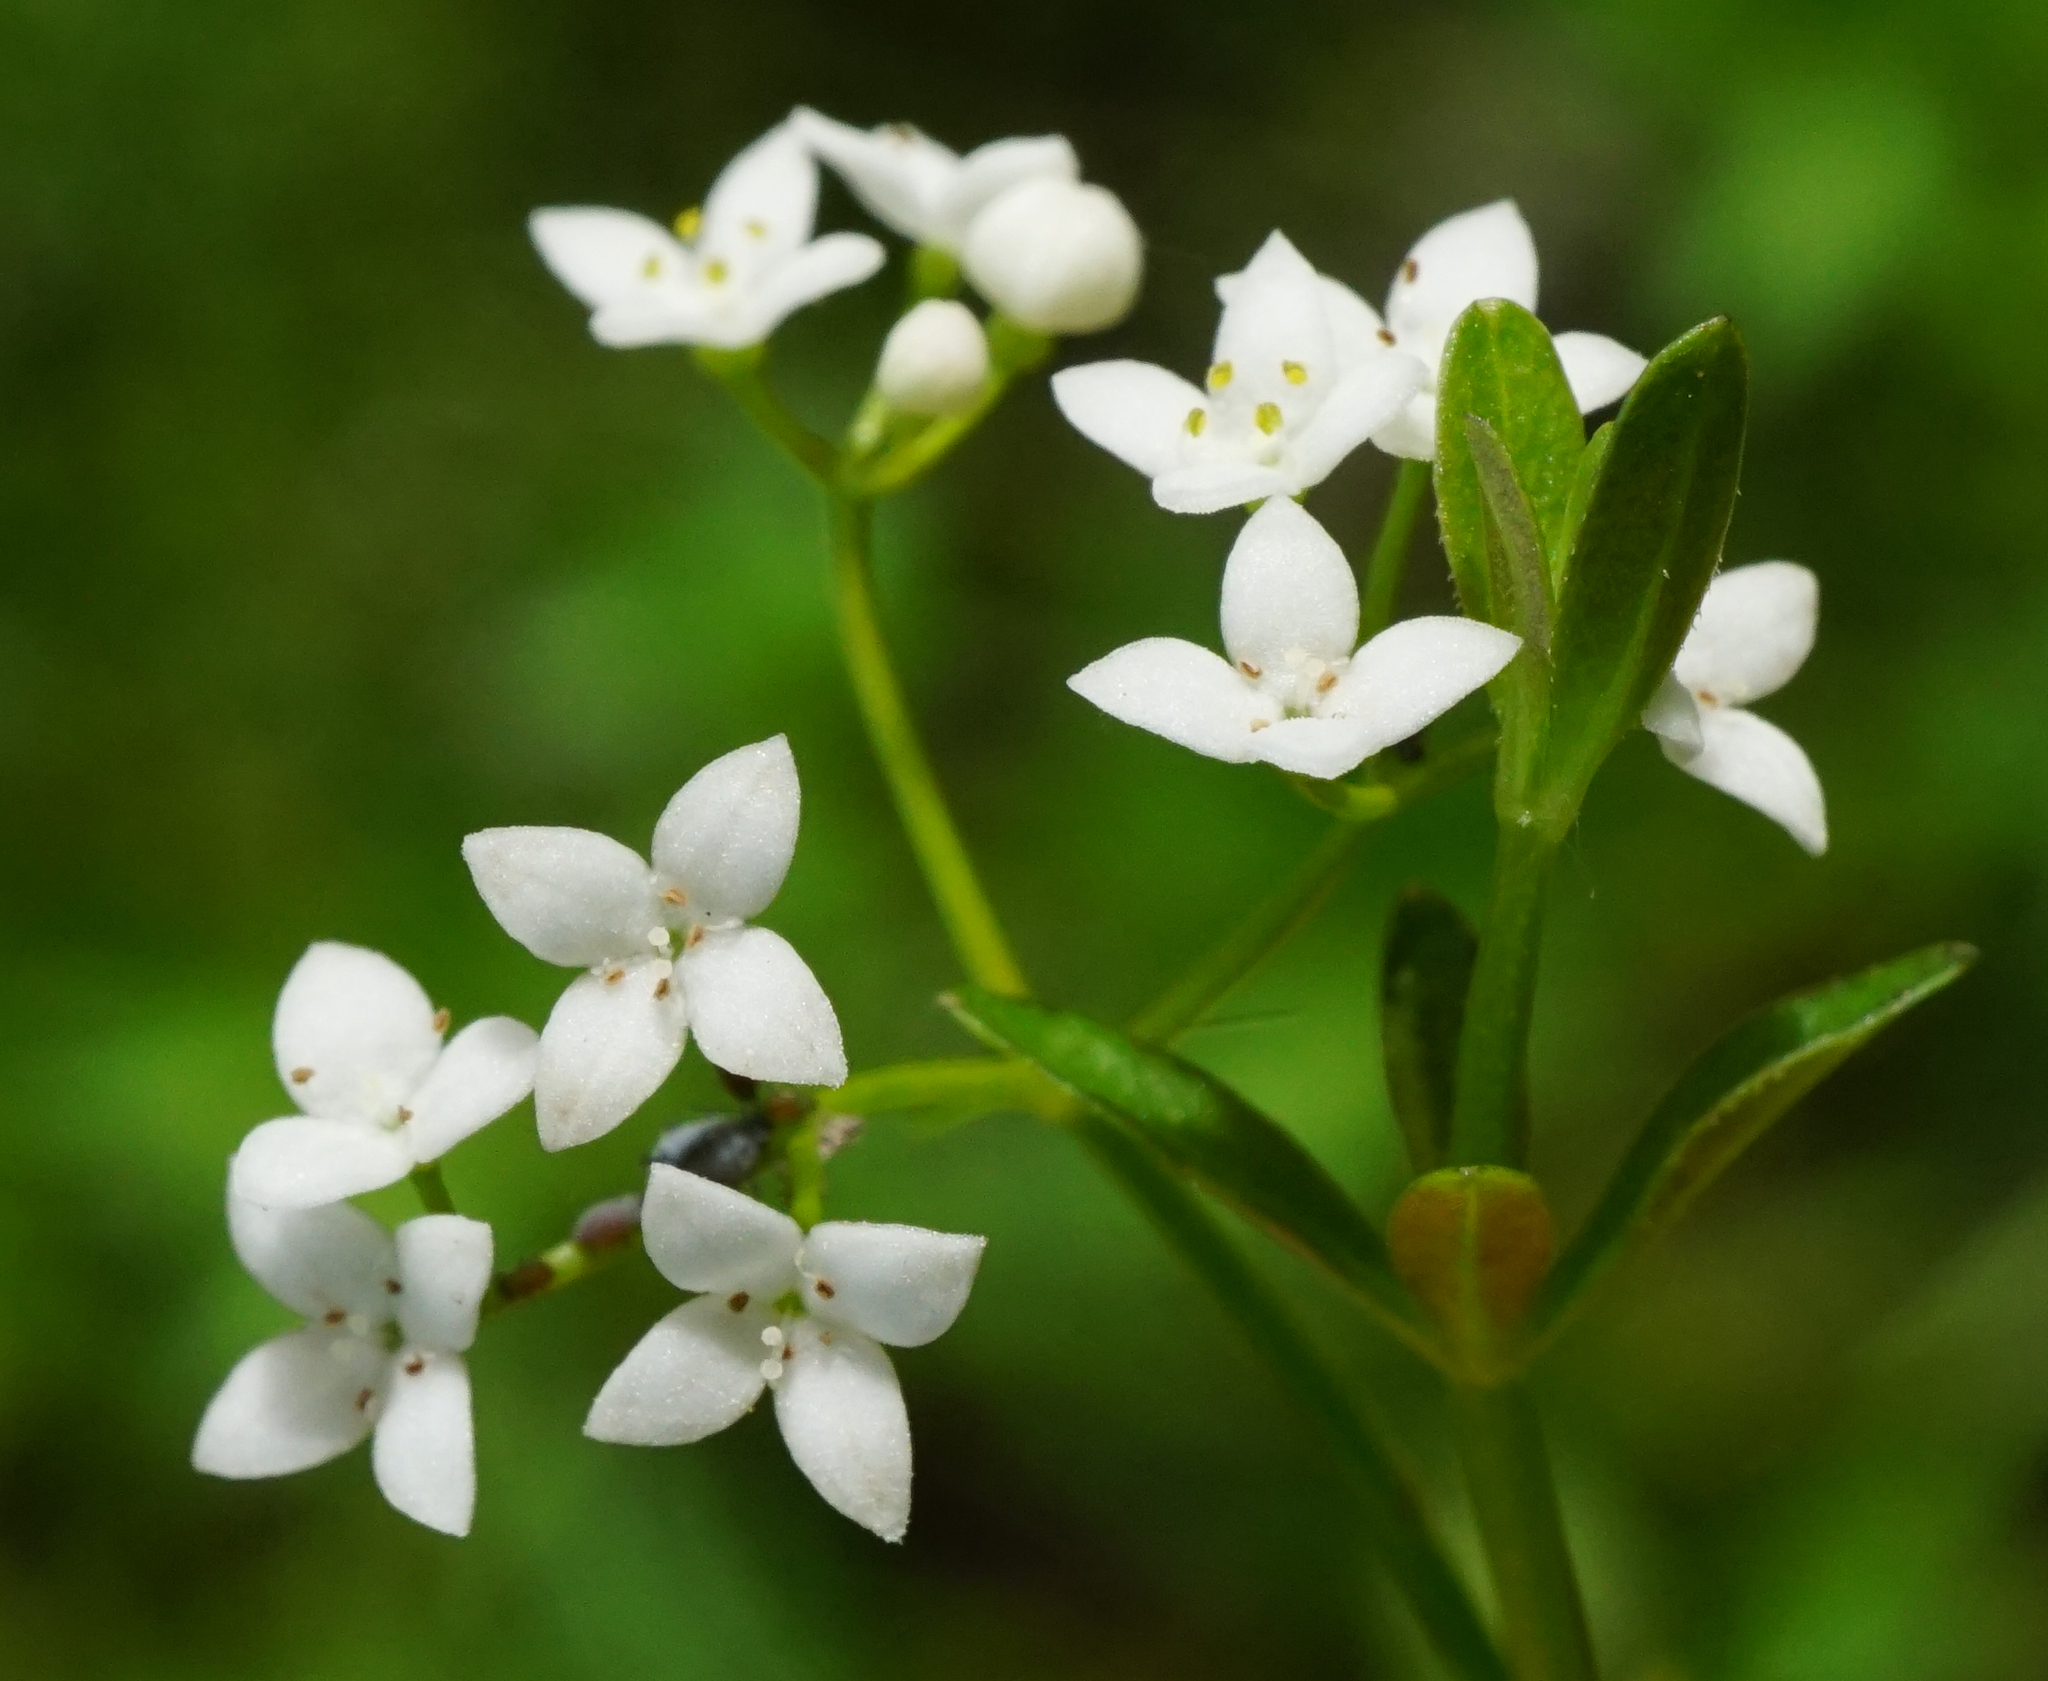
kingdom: Plantae
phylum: Tracheophyta
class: Magnoliopsida
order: Gentianales
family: Rubiaceae
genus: Galium
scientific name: Galium elongatum
